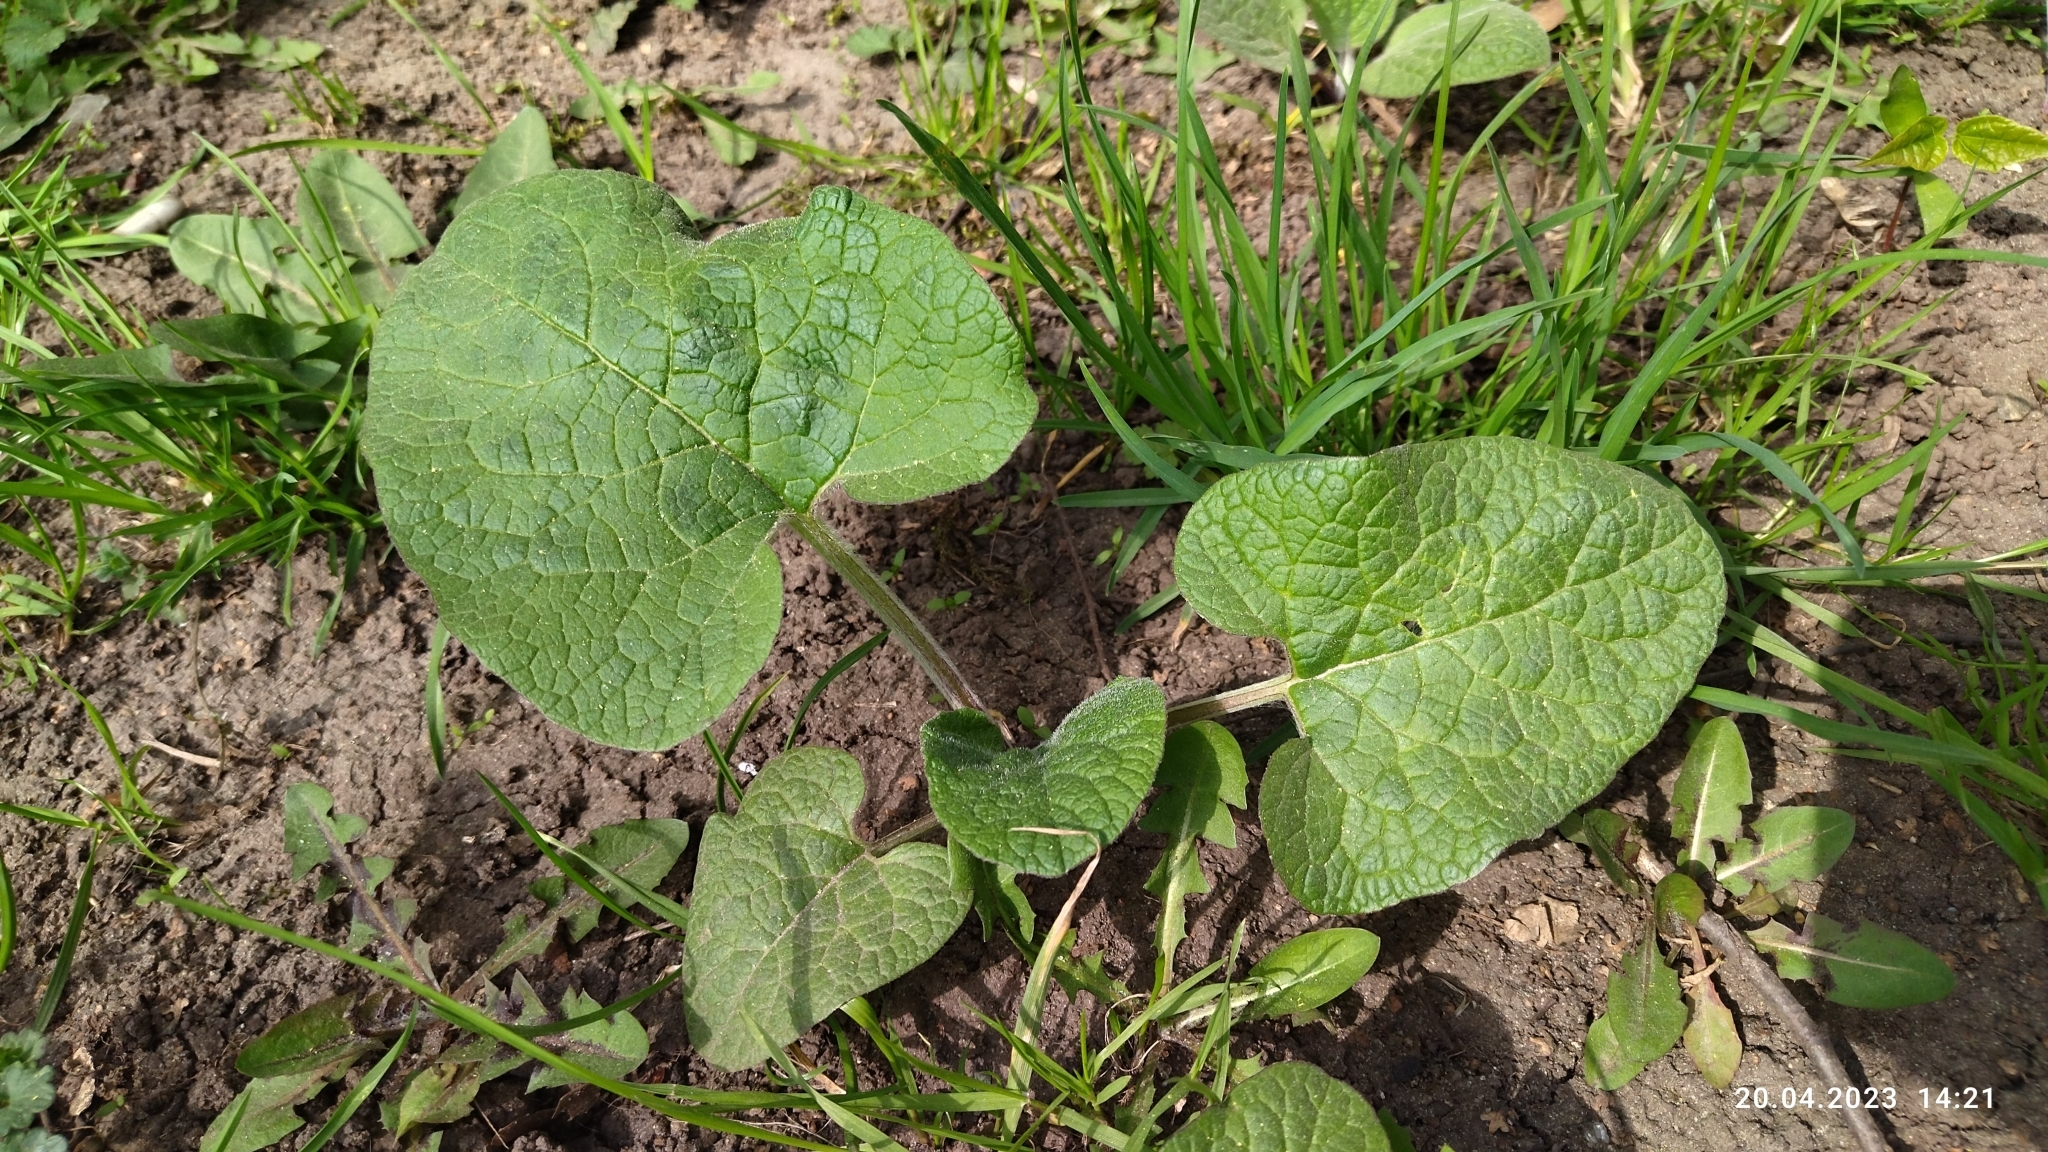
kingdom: Plantae
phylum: Tracheophyta
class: Magnoliopsida
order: Asterales
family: Asteraceae
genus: Arctium
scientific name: Arctium
